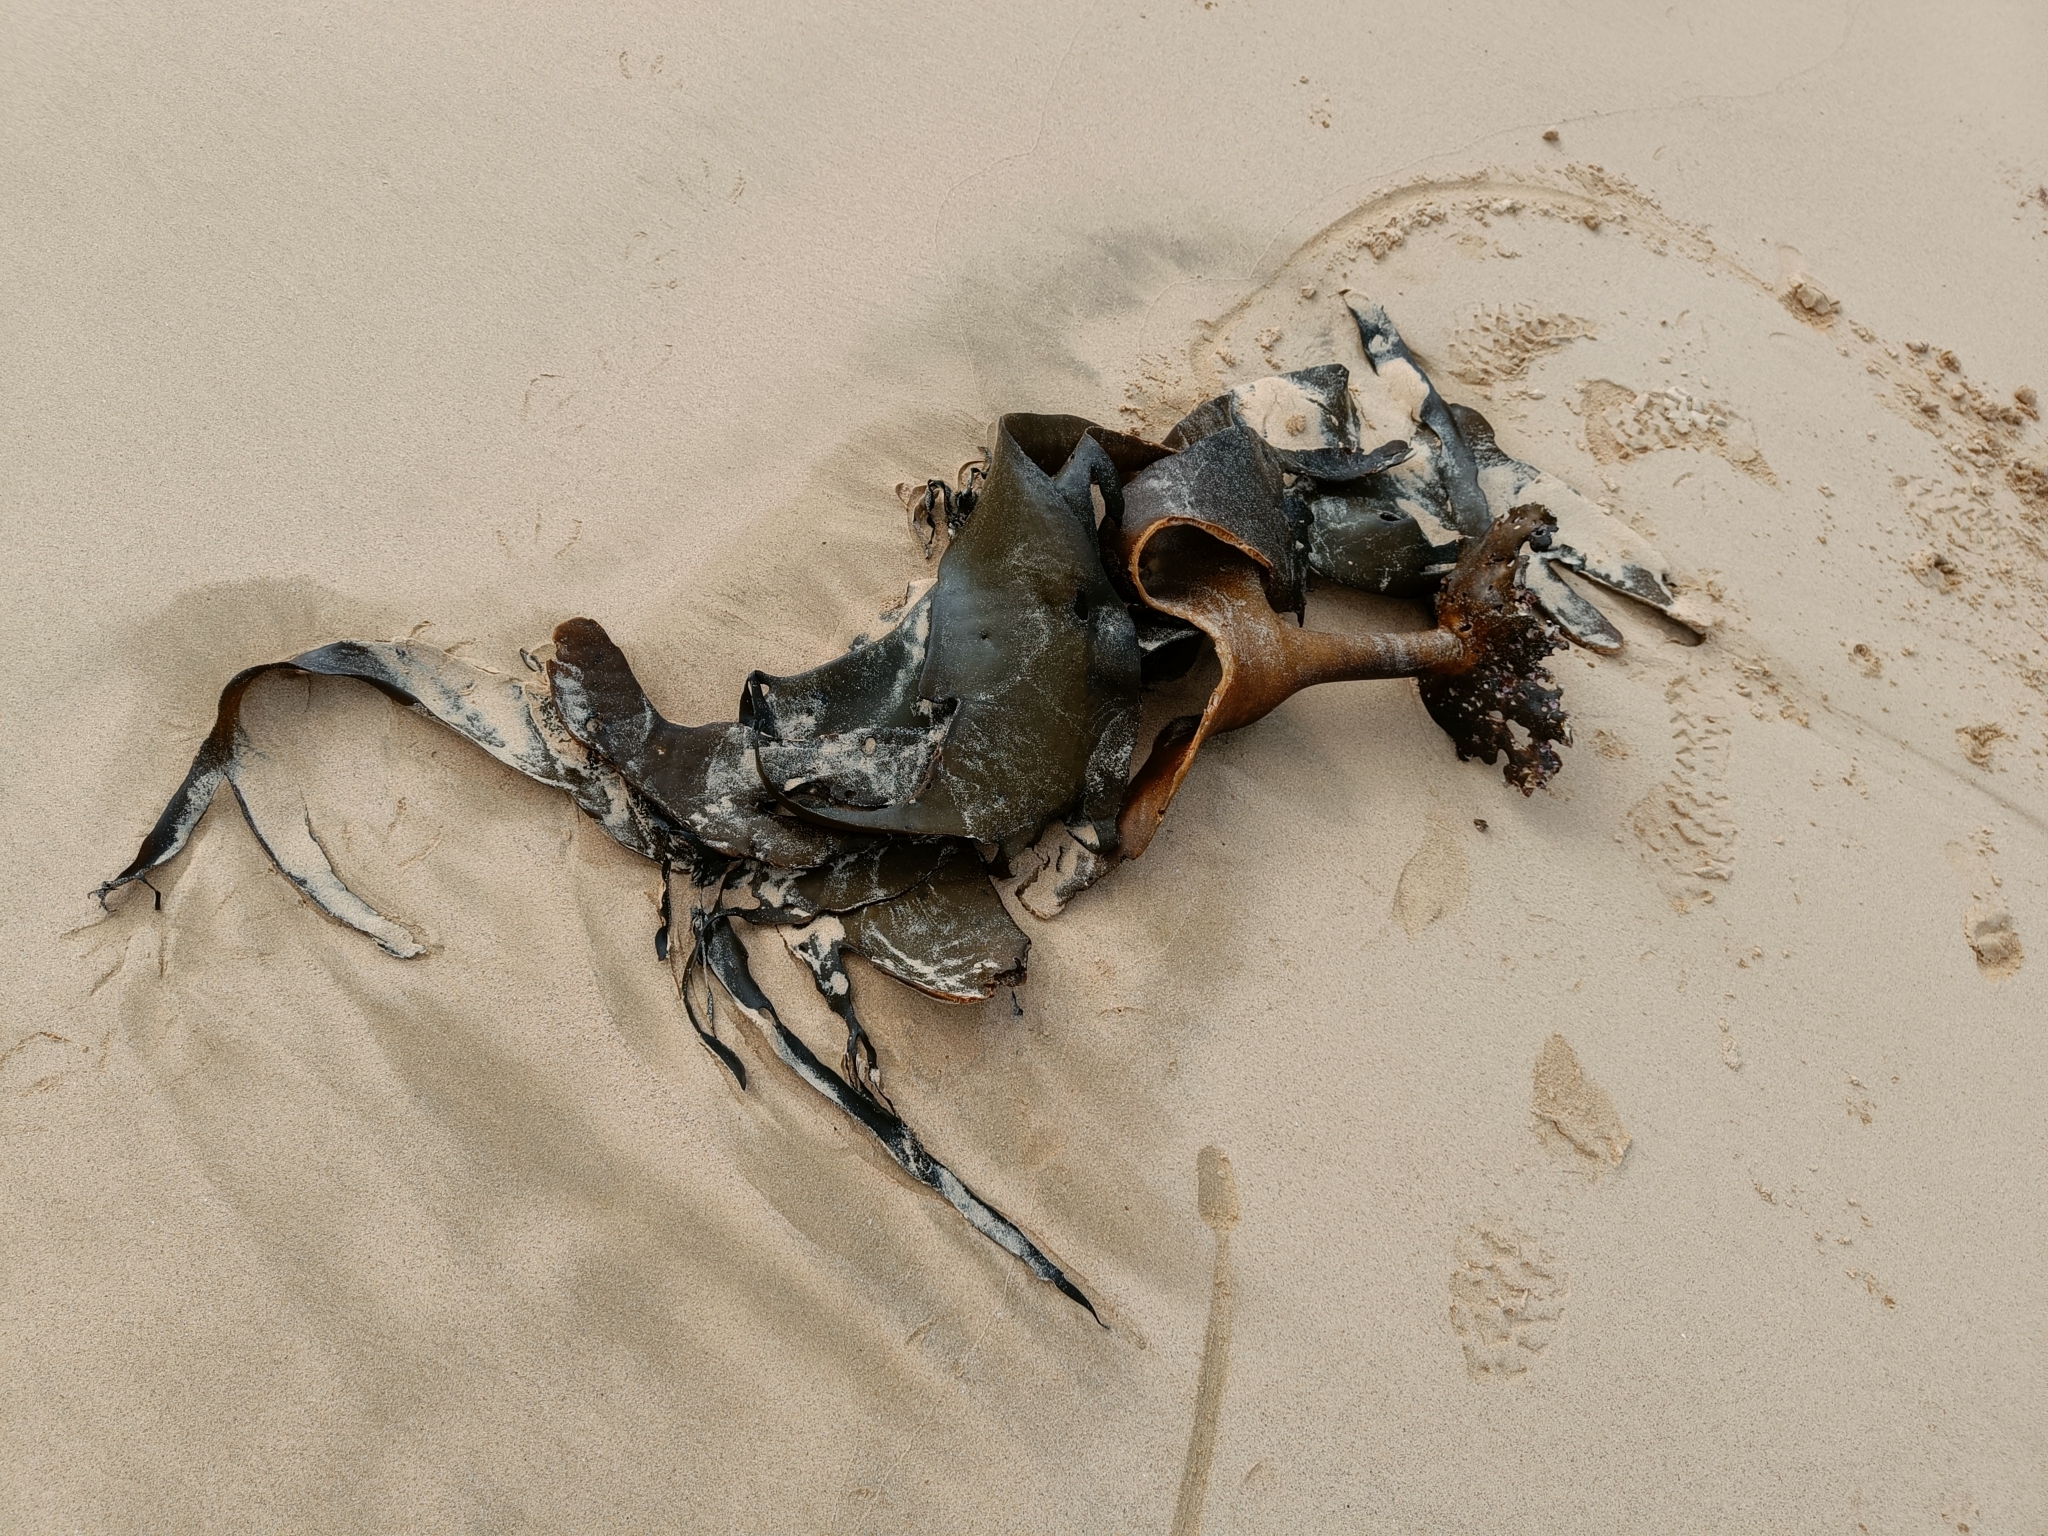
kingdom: Chromista
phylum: Ochrophyta
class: Phaeophyceae
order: Fucales
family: Durvillaeaceae
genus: Durvillaea
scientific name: Durvillaea antarctica
